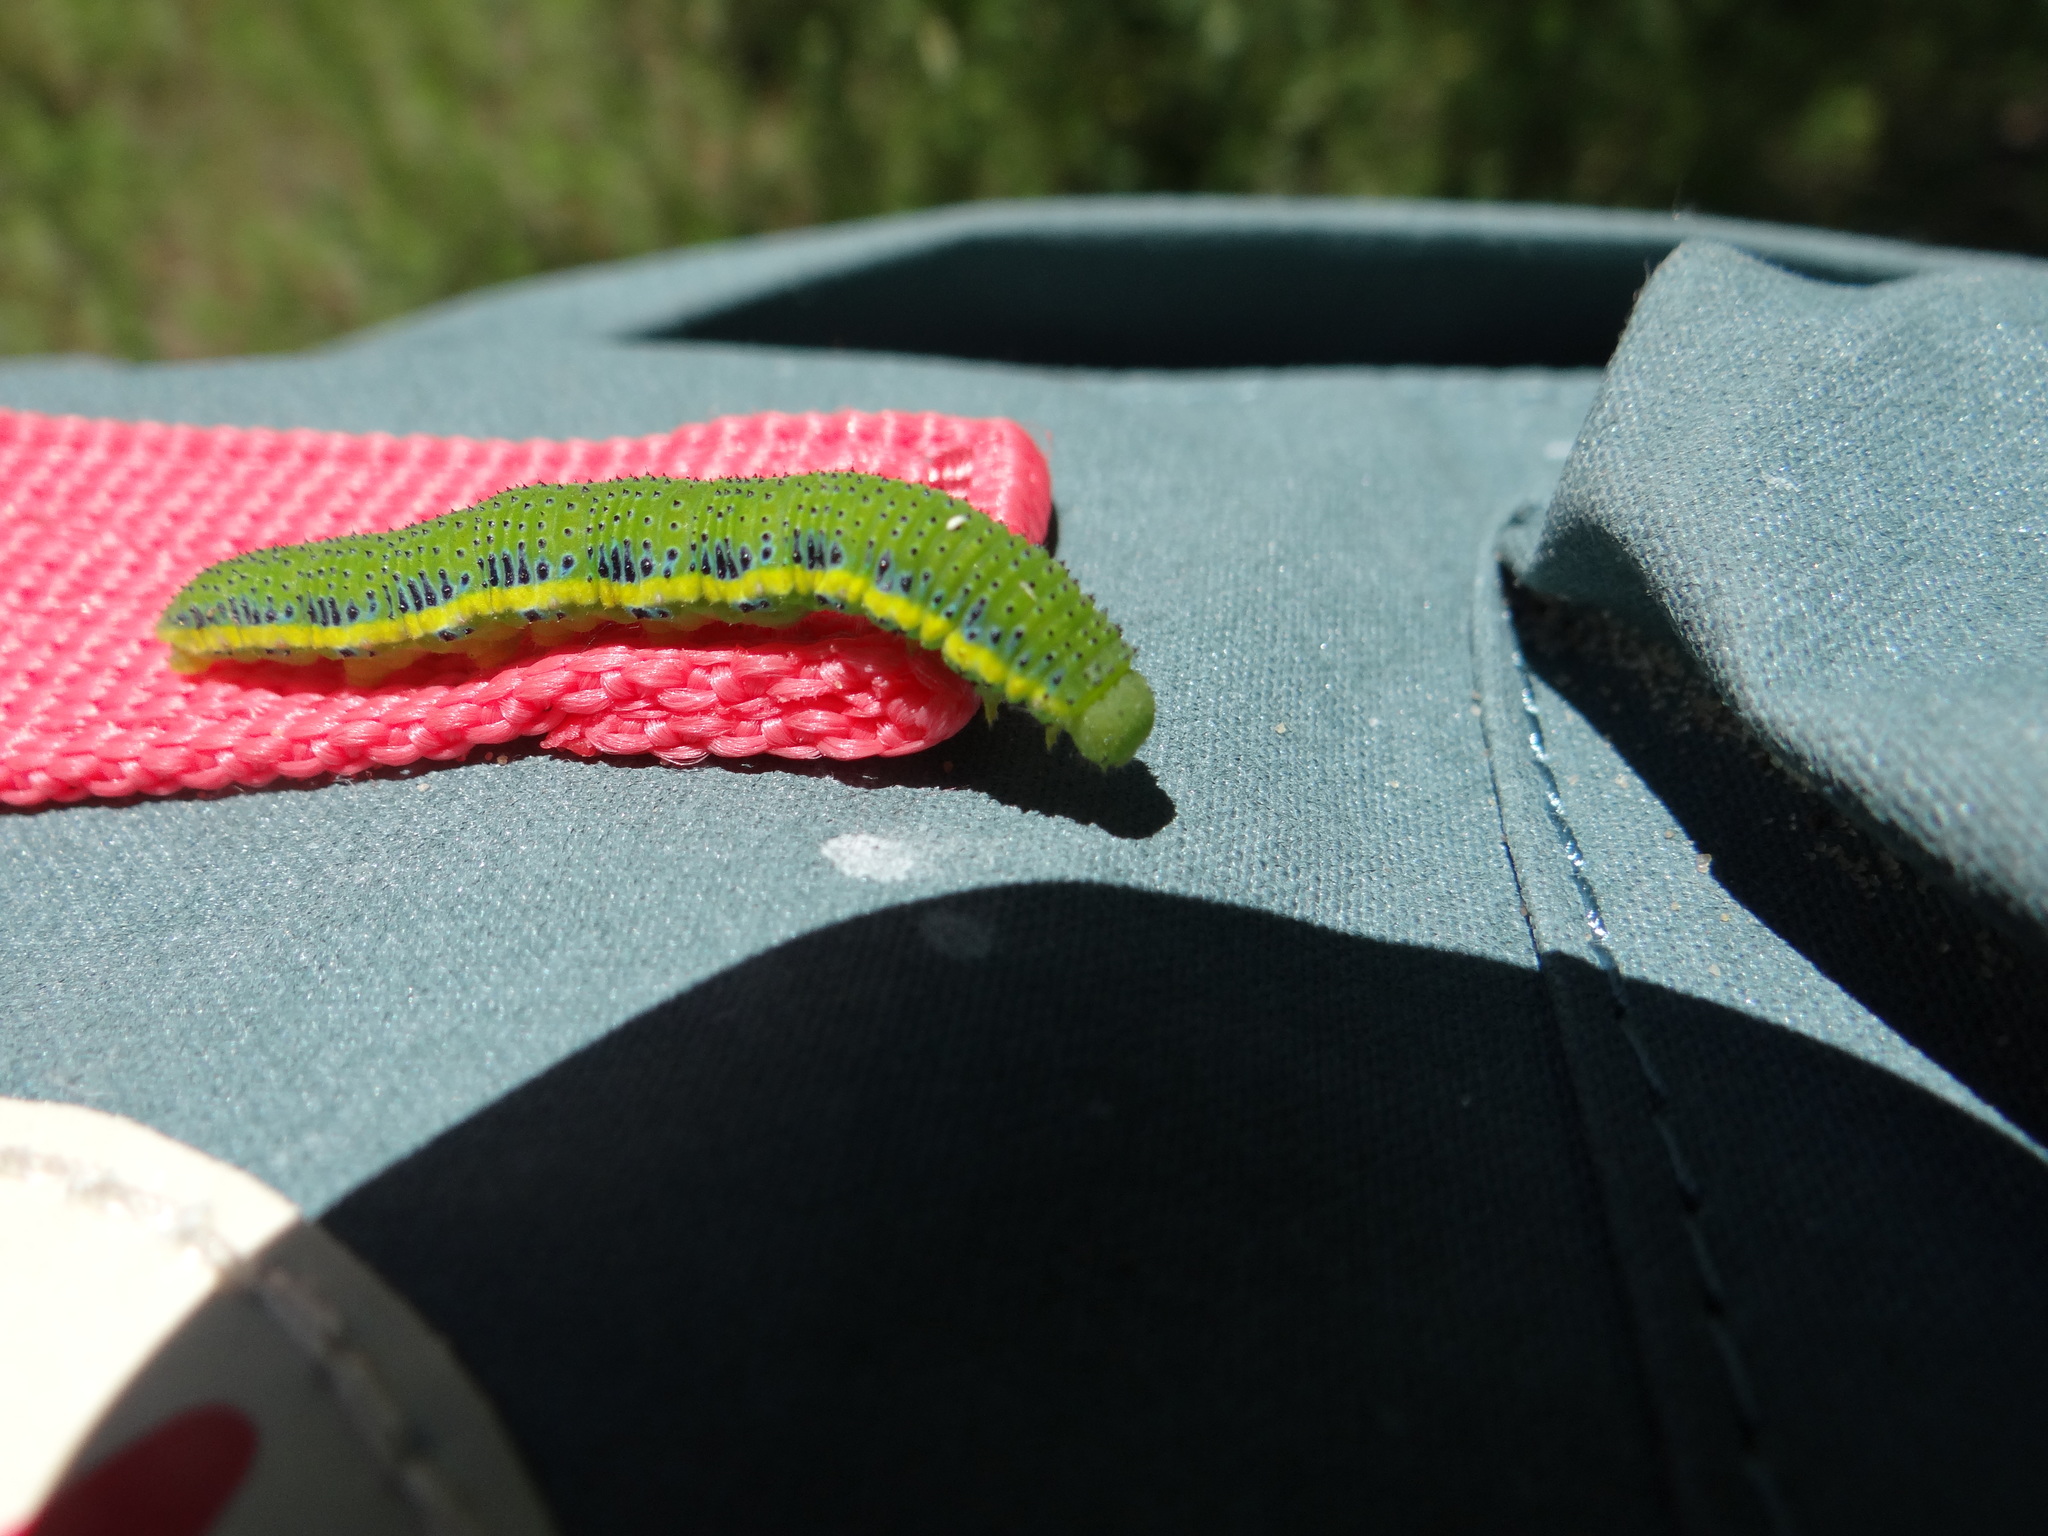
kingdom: Animalia
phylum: Arthropoda
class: Insecta
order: Lepidoptera
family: Pieridae
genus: Phoebis
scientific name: Phoebis sennae
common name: Cloudless sulphur
